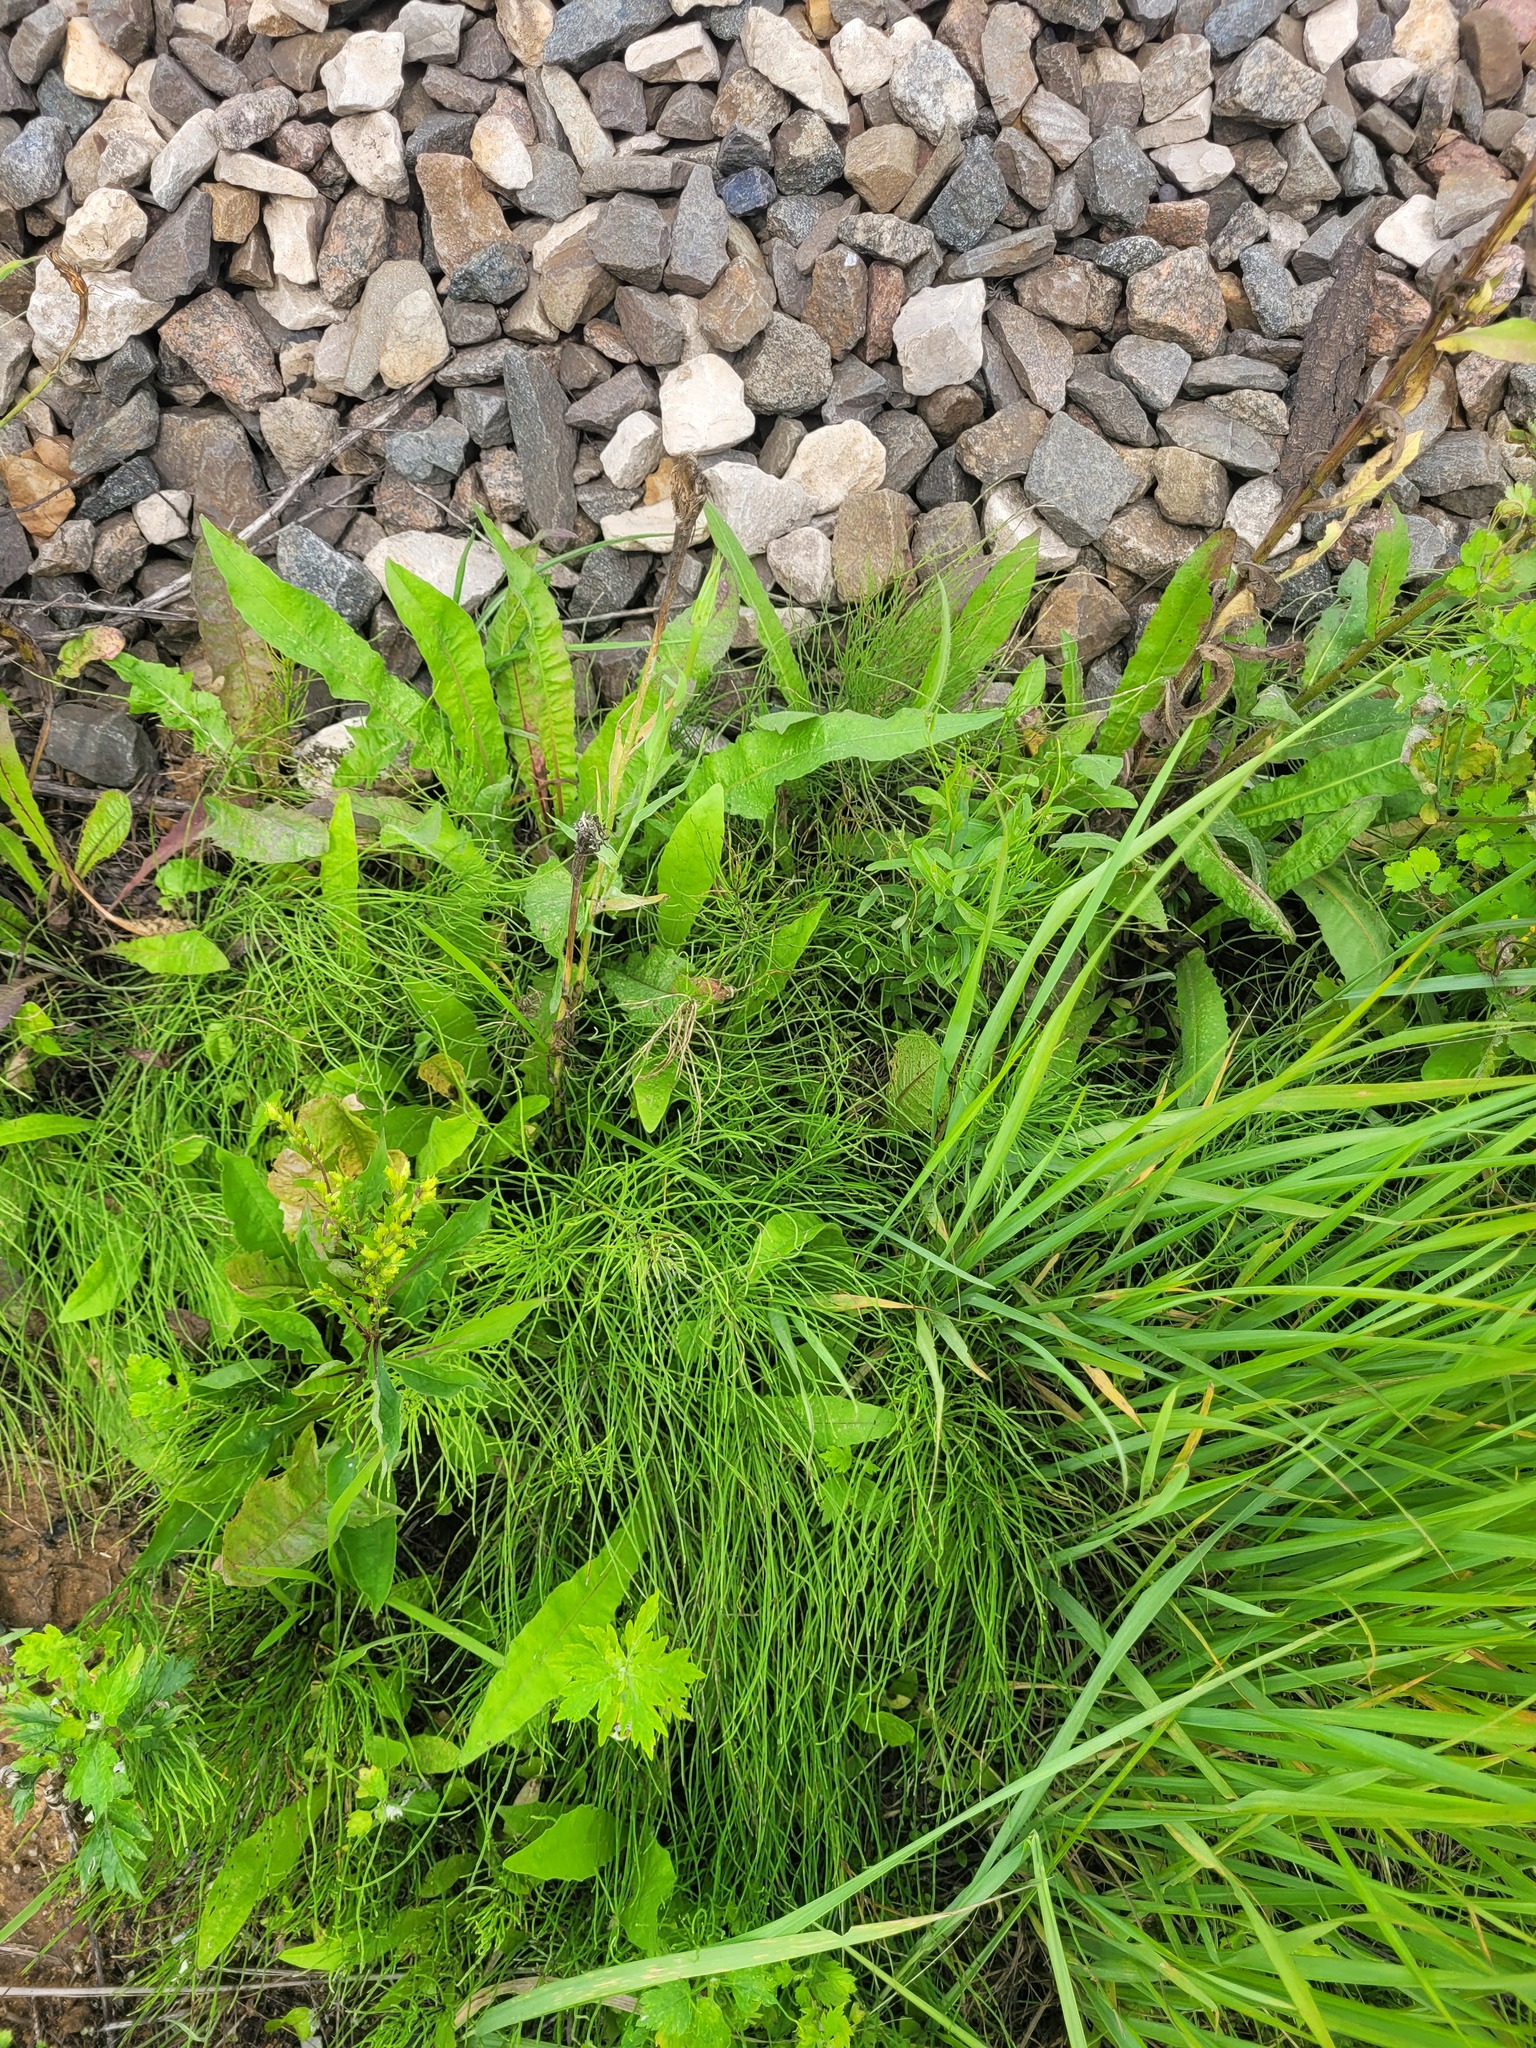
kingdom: Plantae
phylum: Tracheophyta
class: Polypodiopsida
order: Equisetales
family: Equisetaceae
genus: Equisetum
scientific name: Equisetum arvense
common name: Field horsetail
